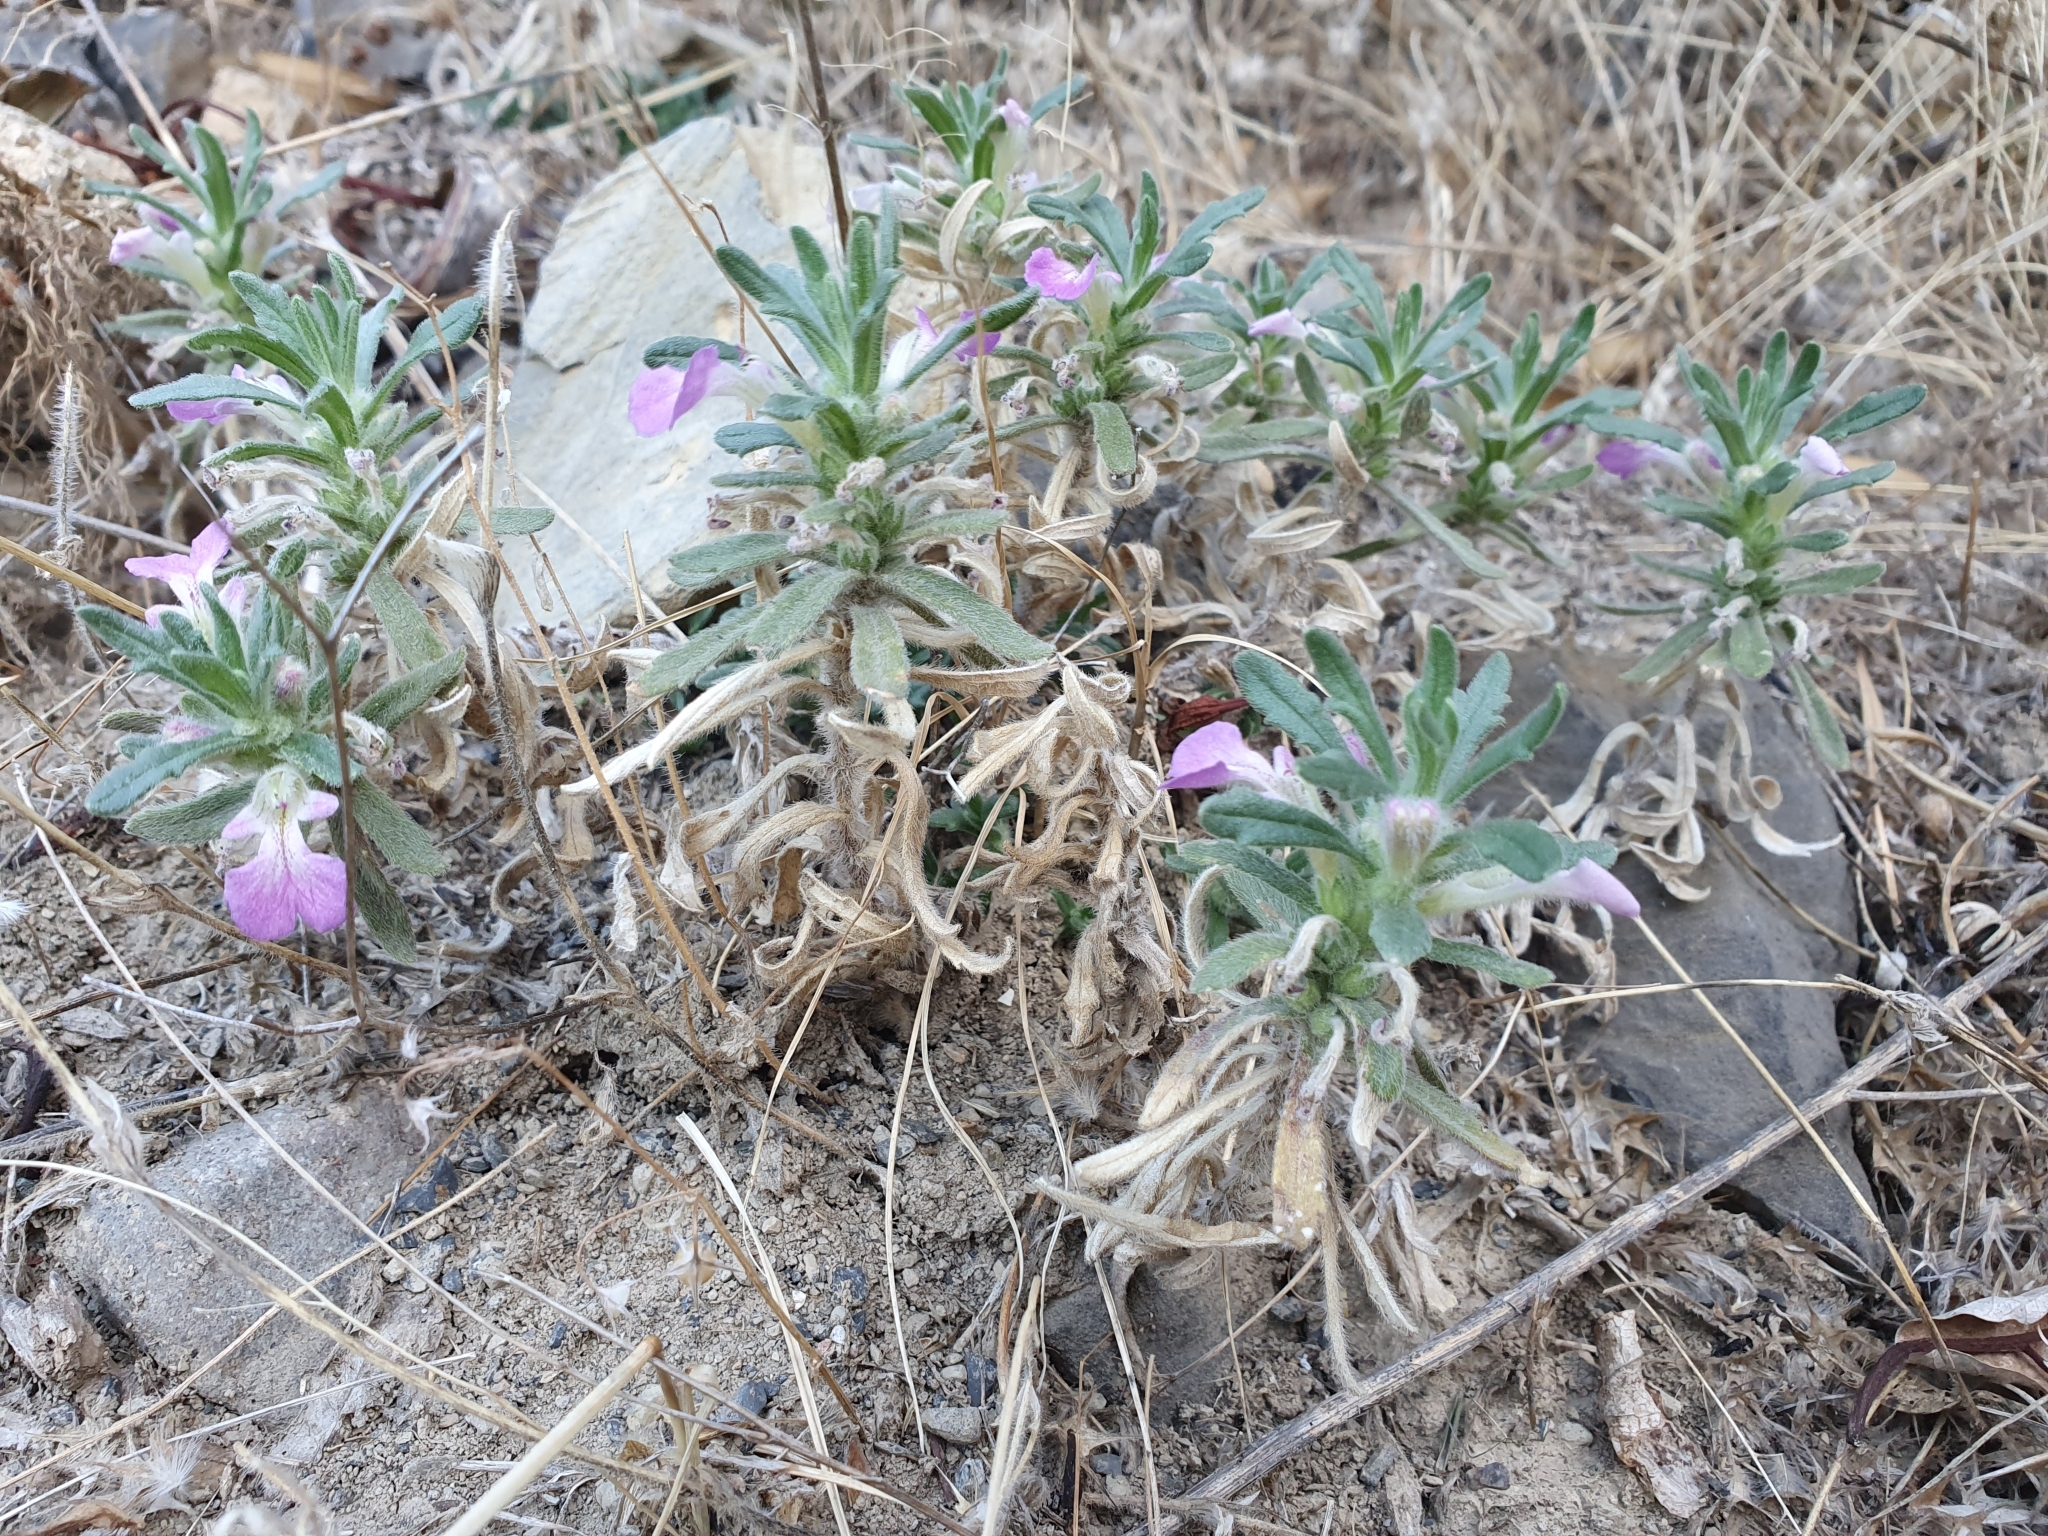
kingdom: Plantae
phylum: Tracheophyta
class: Magnoliopsida
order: Lamiales
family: Lamiaceae
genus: Ajuga
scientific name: Ajuga iva
